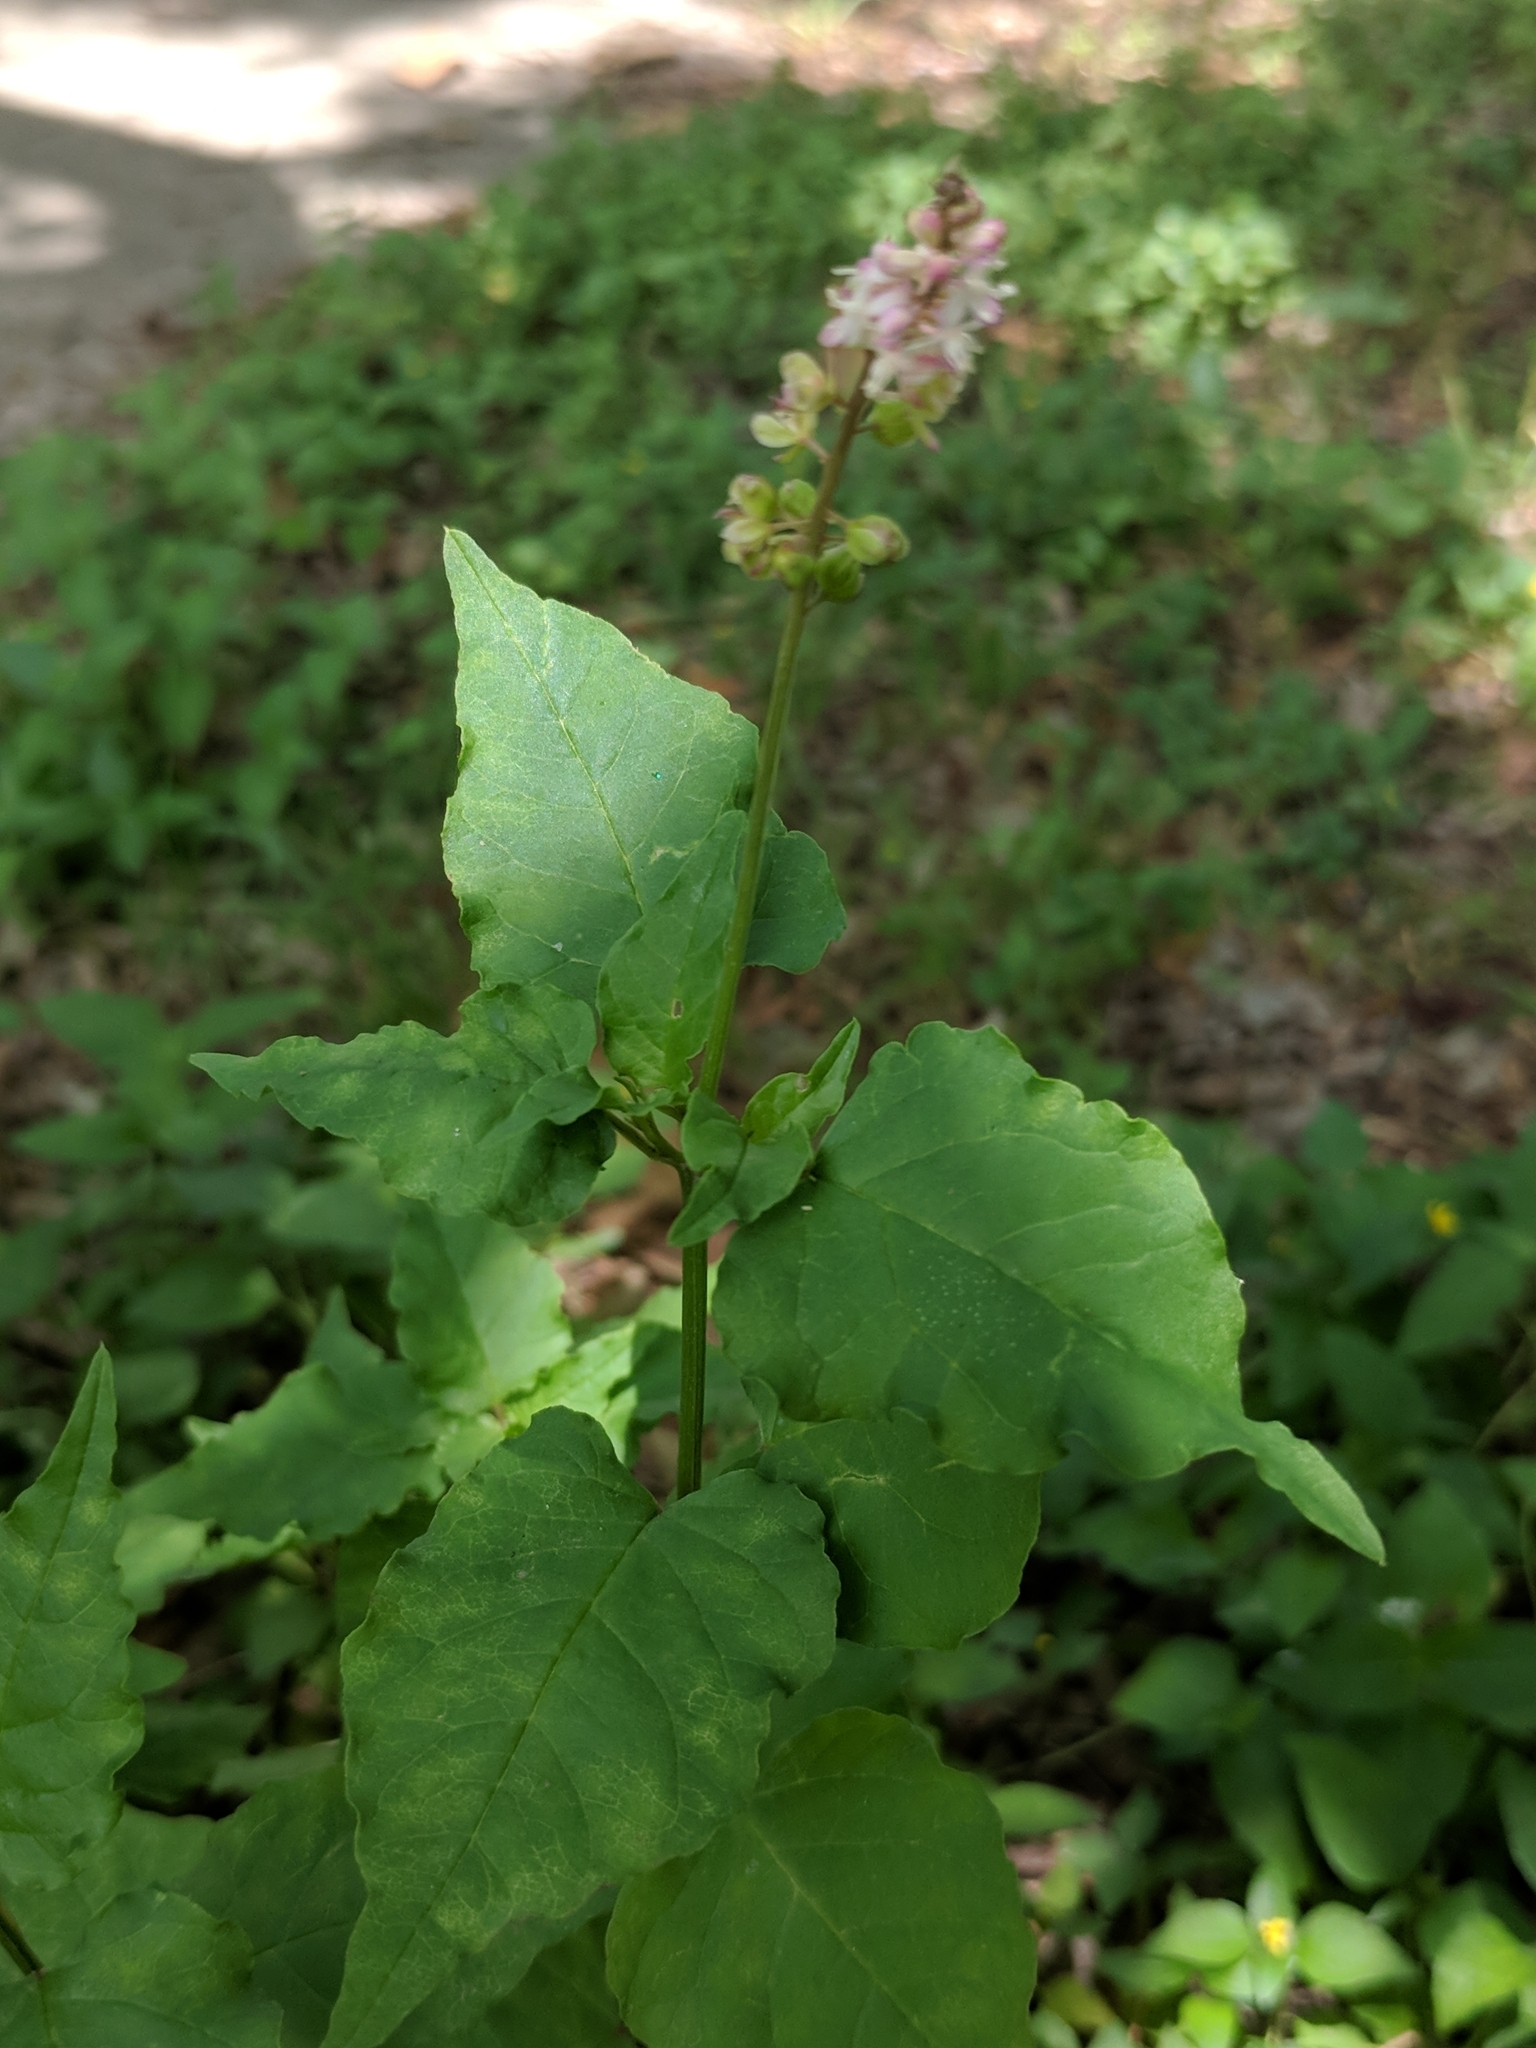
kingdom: Plantae
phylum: Tracheophyta
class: Magnoliopsida
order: Caryophyllales
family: Phytolaccaceae
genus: Rivina
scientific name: Rivina humilis
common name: Rougeplant
